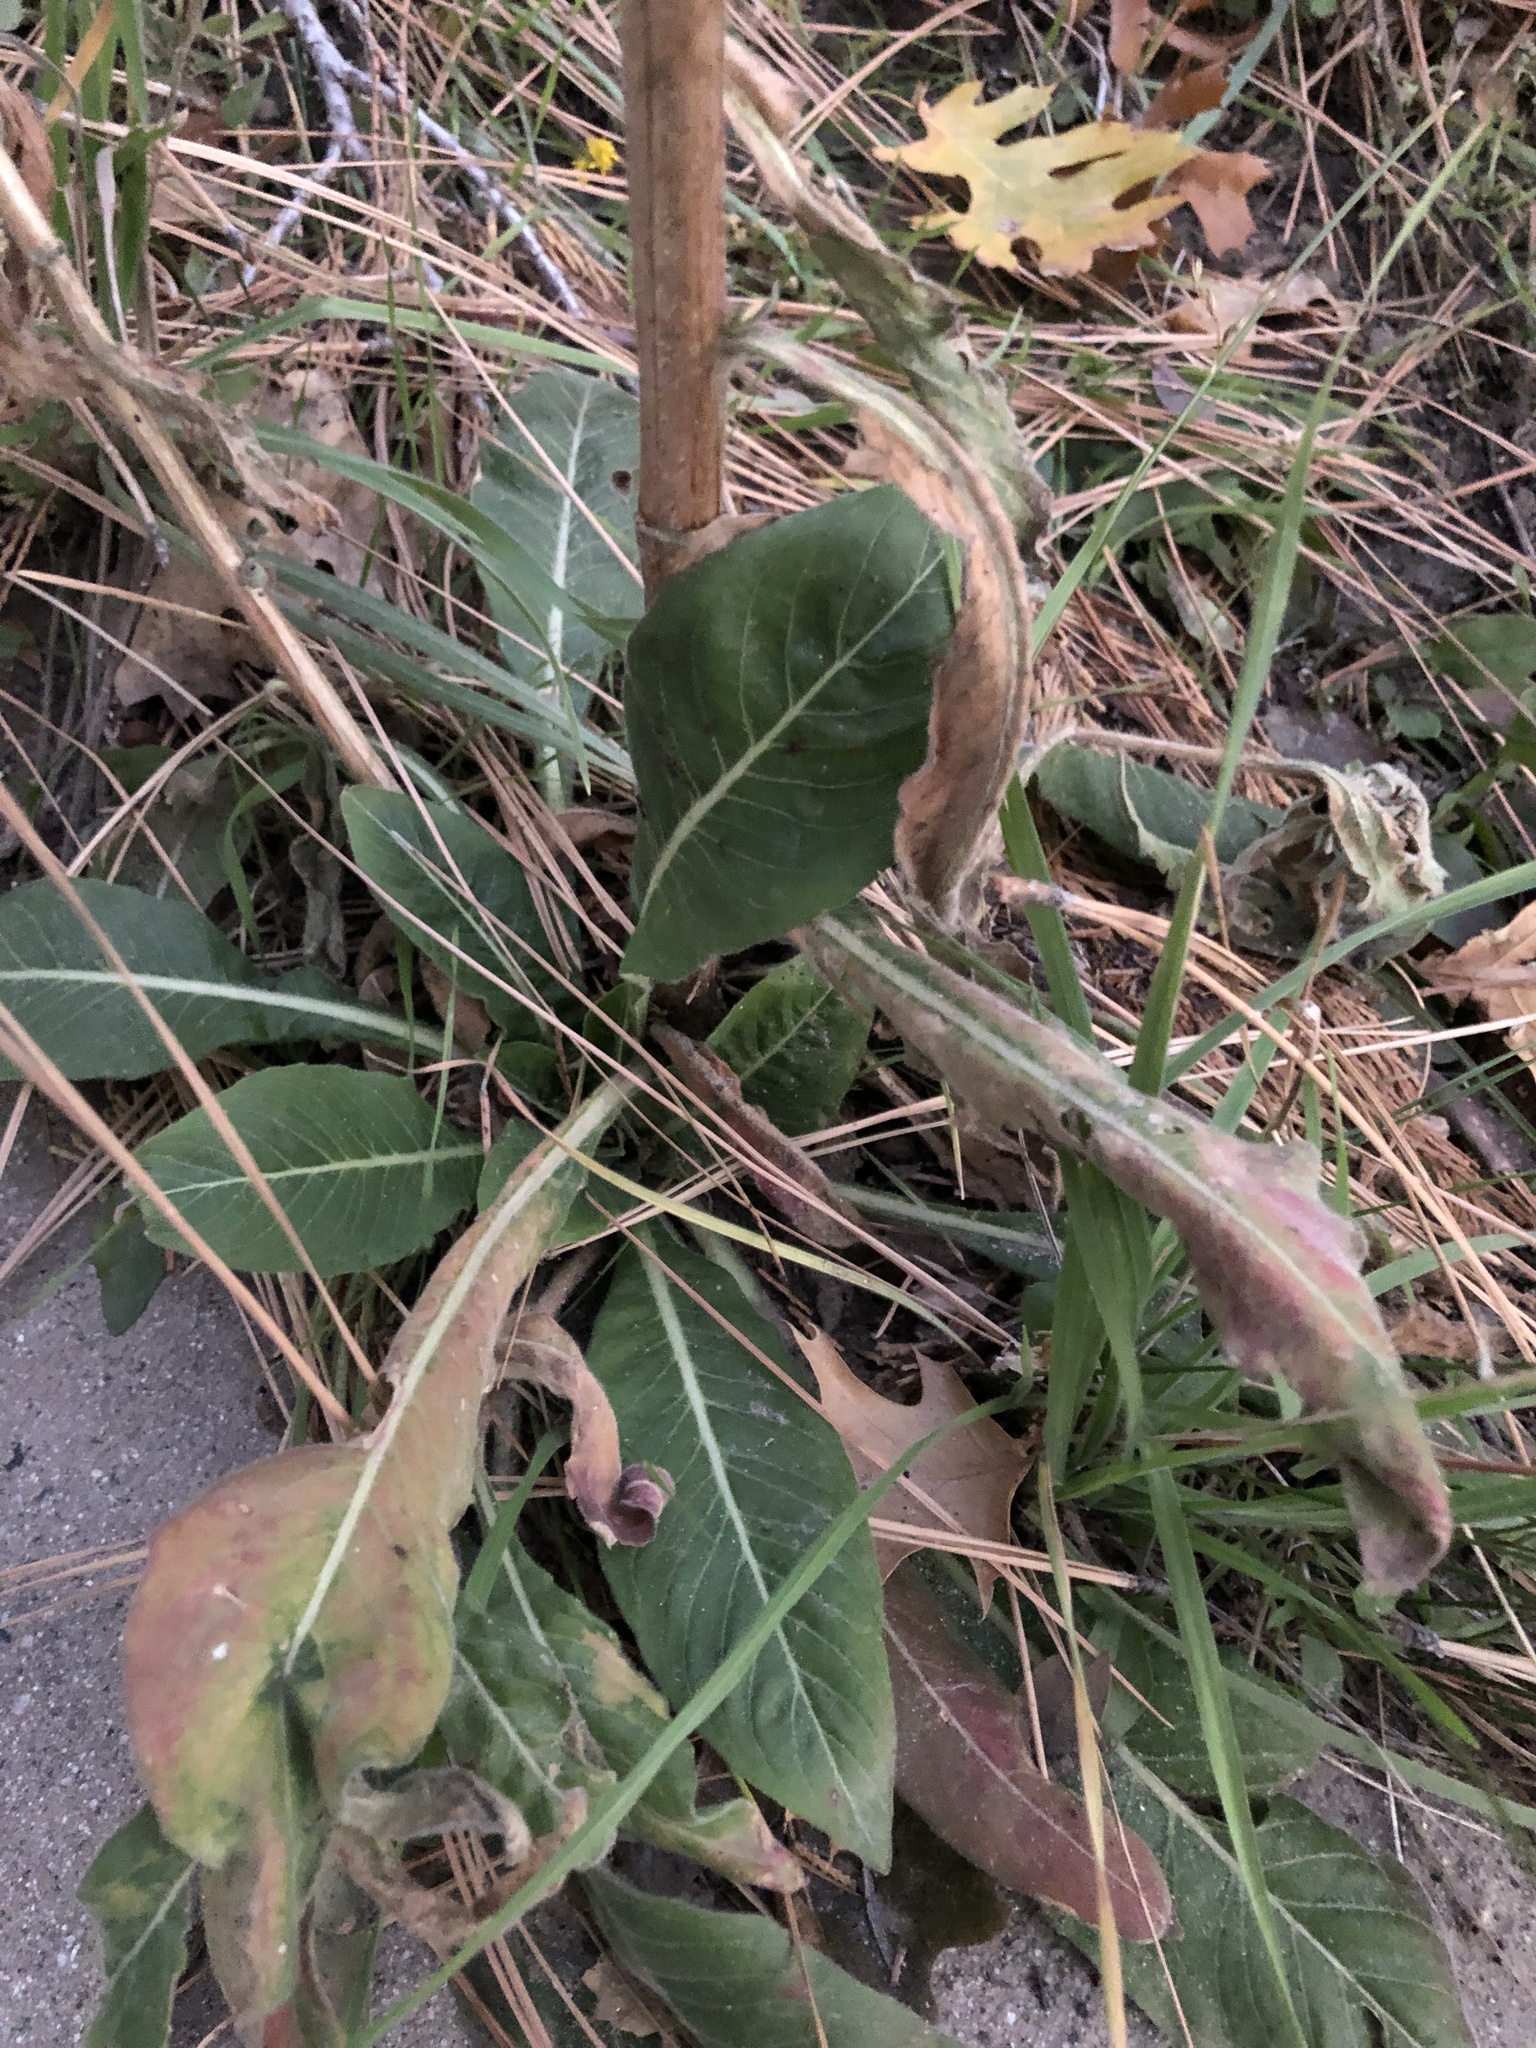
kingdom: Plantae
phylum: Tracheophyta
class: Magnoliopsida
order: Myrtales
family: Onagraceae
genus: Oenothera
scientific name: Oenothera elata
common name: Hooker's evening-primrose
